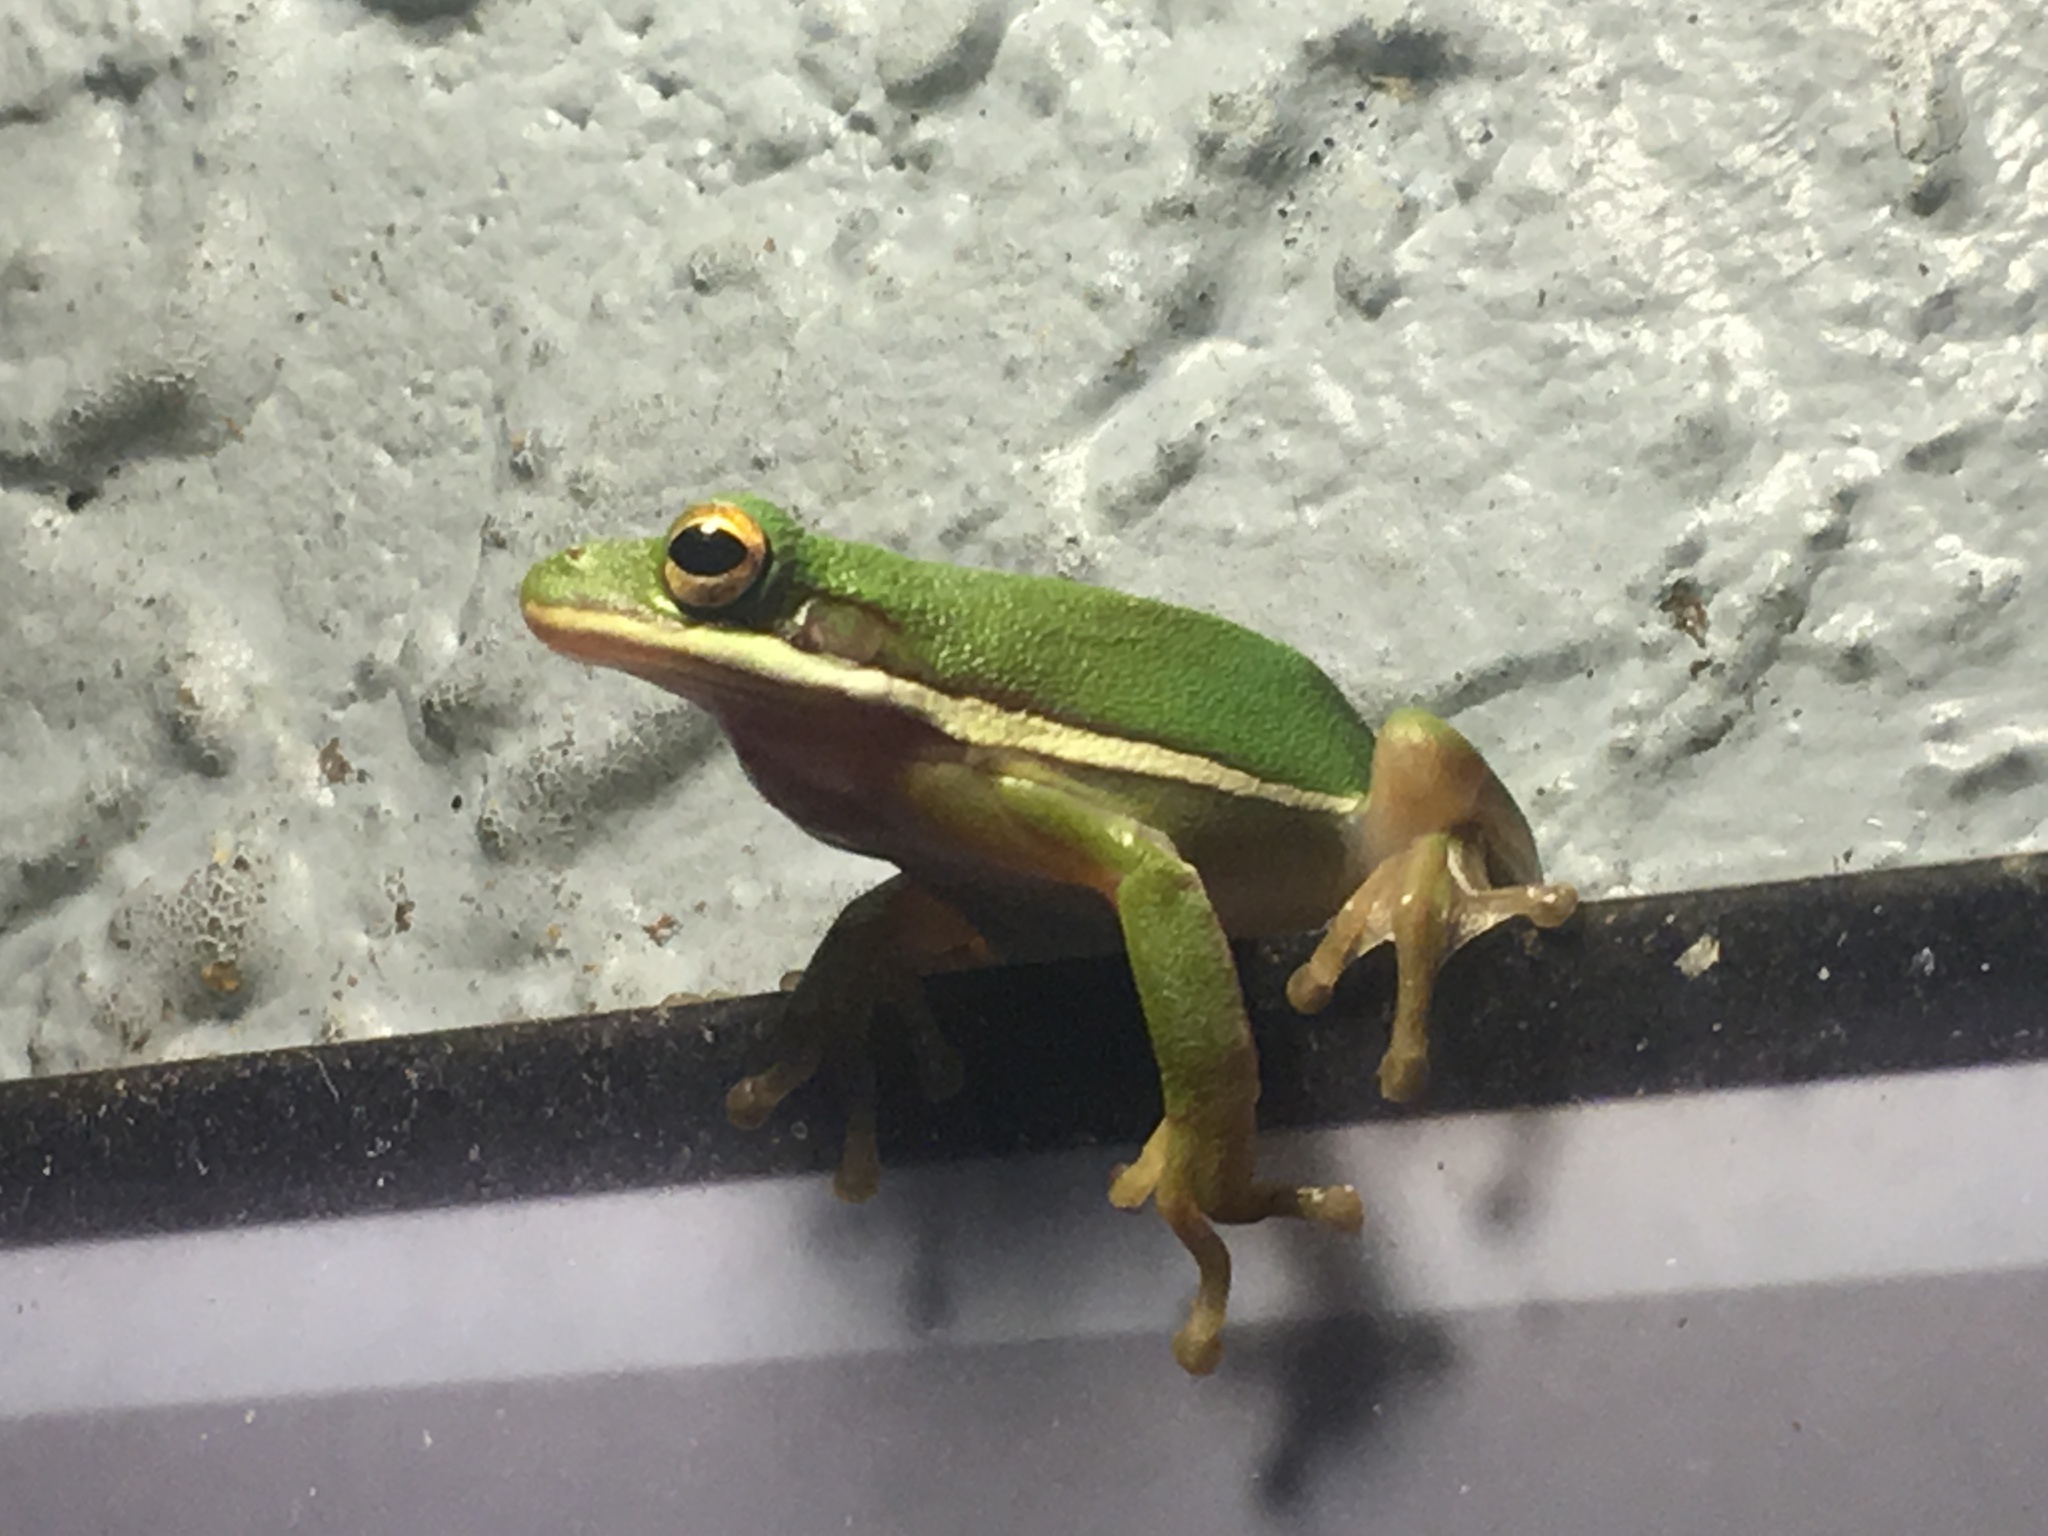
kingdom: Animalia
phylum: Chordata
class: Amphibia
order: Anura
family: Hylidae
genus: Dryophytes
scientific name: Dryophytes cinereus
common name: Green treefrog
